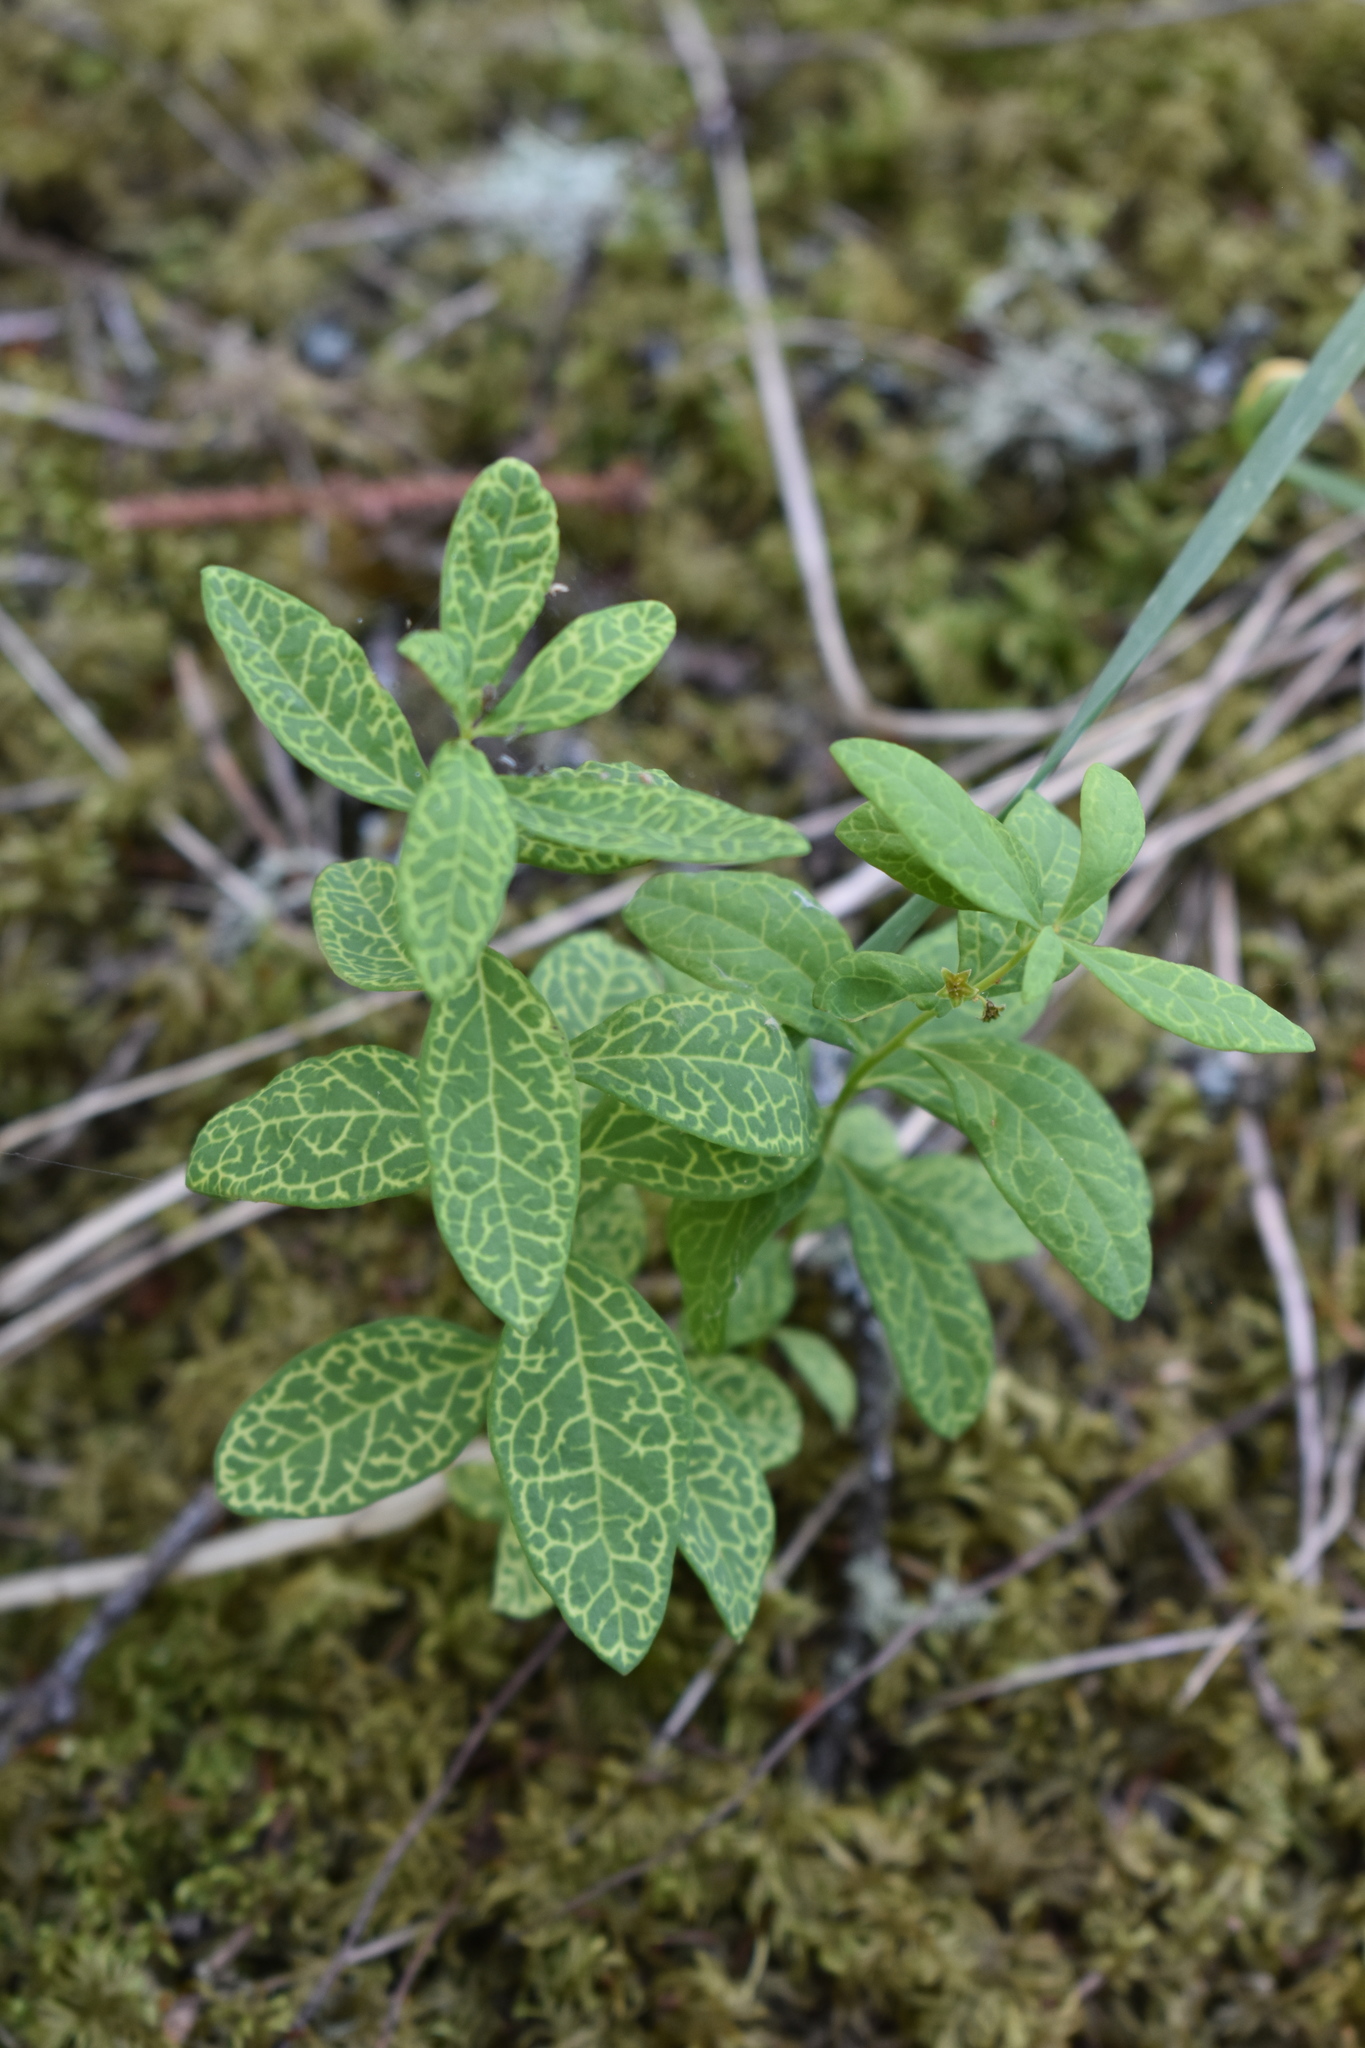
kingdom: Plantae
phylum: Tracheophyta
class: Magnoliopsida
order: Santalales
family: Comandraceae
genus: Geocaulon
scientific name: Geocaulon lividum
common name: Earthberry
